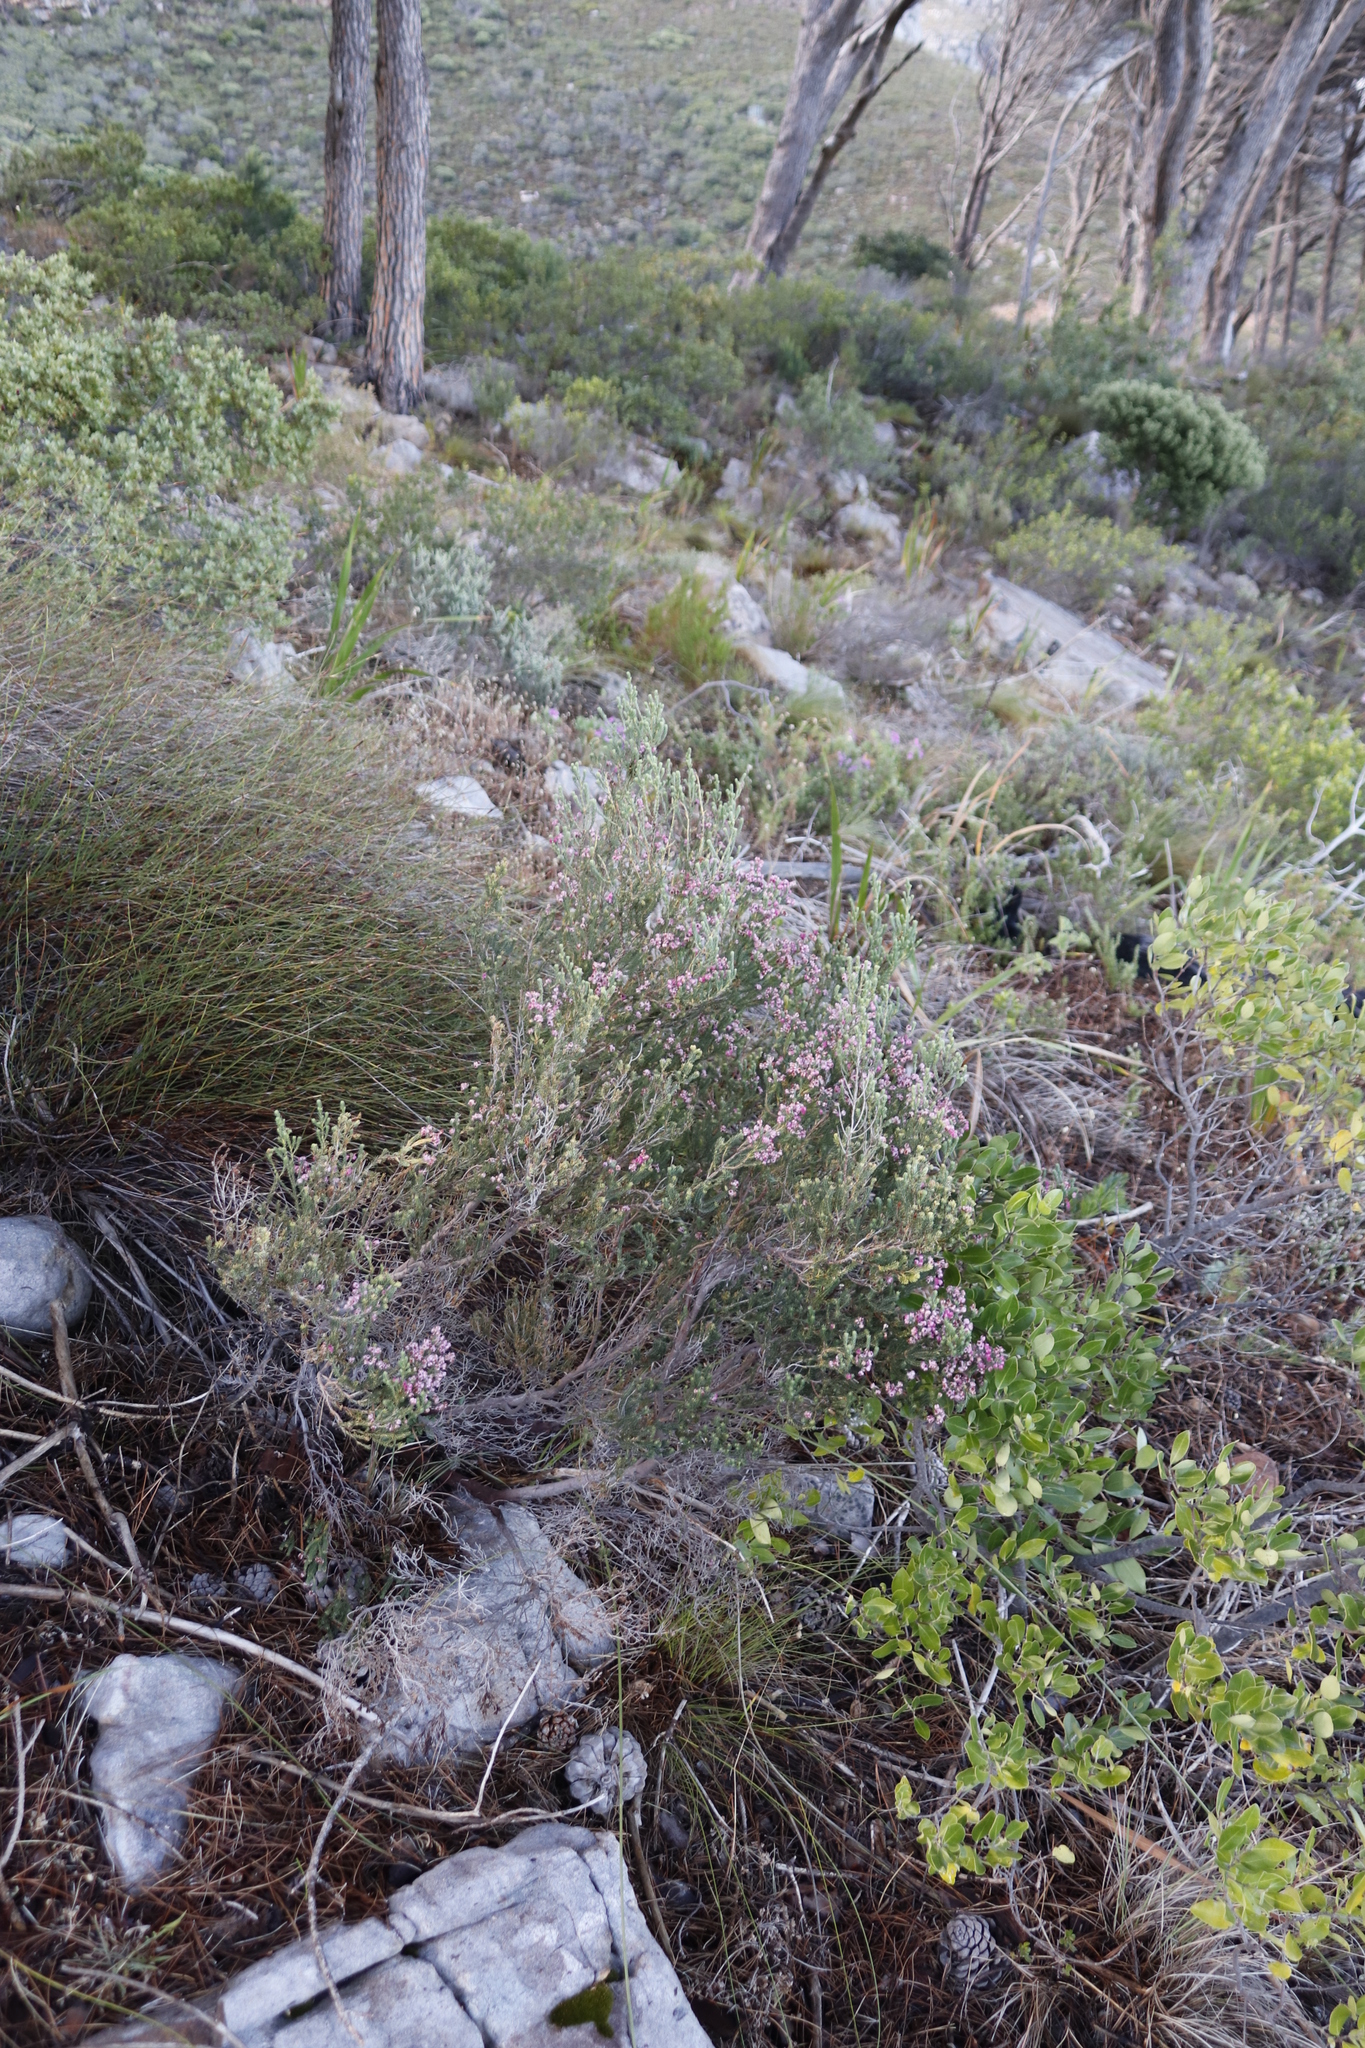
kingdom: Plantae
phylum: Tracheophyta
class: Magnoliopsida
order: Ericales
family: Ericaceae
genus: Erica
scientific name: Erica baccans
